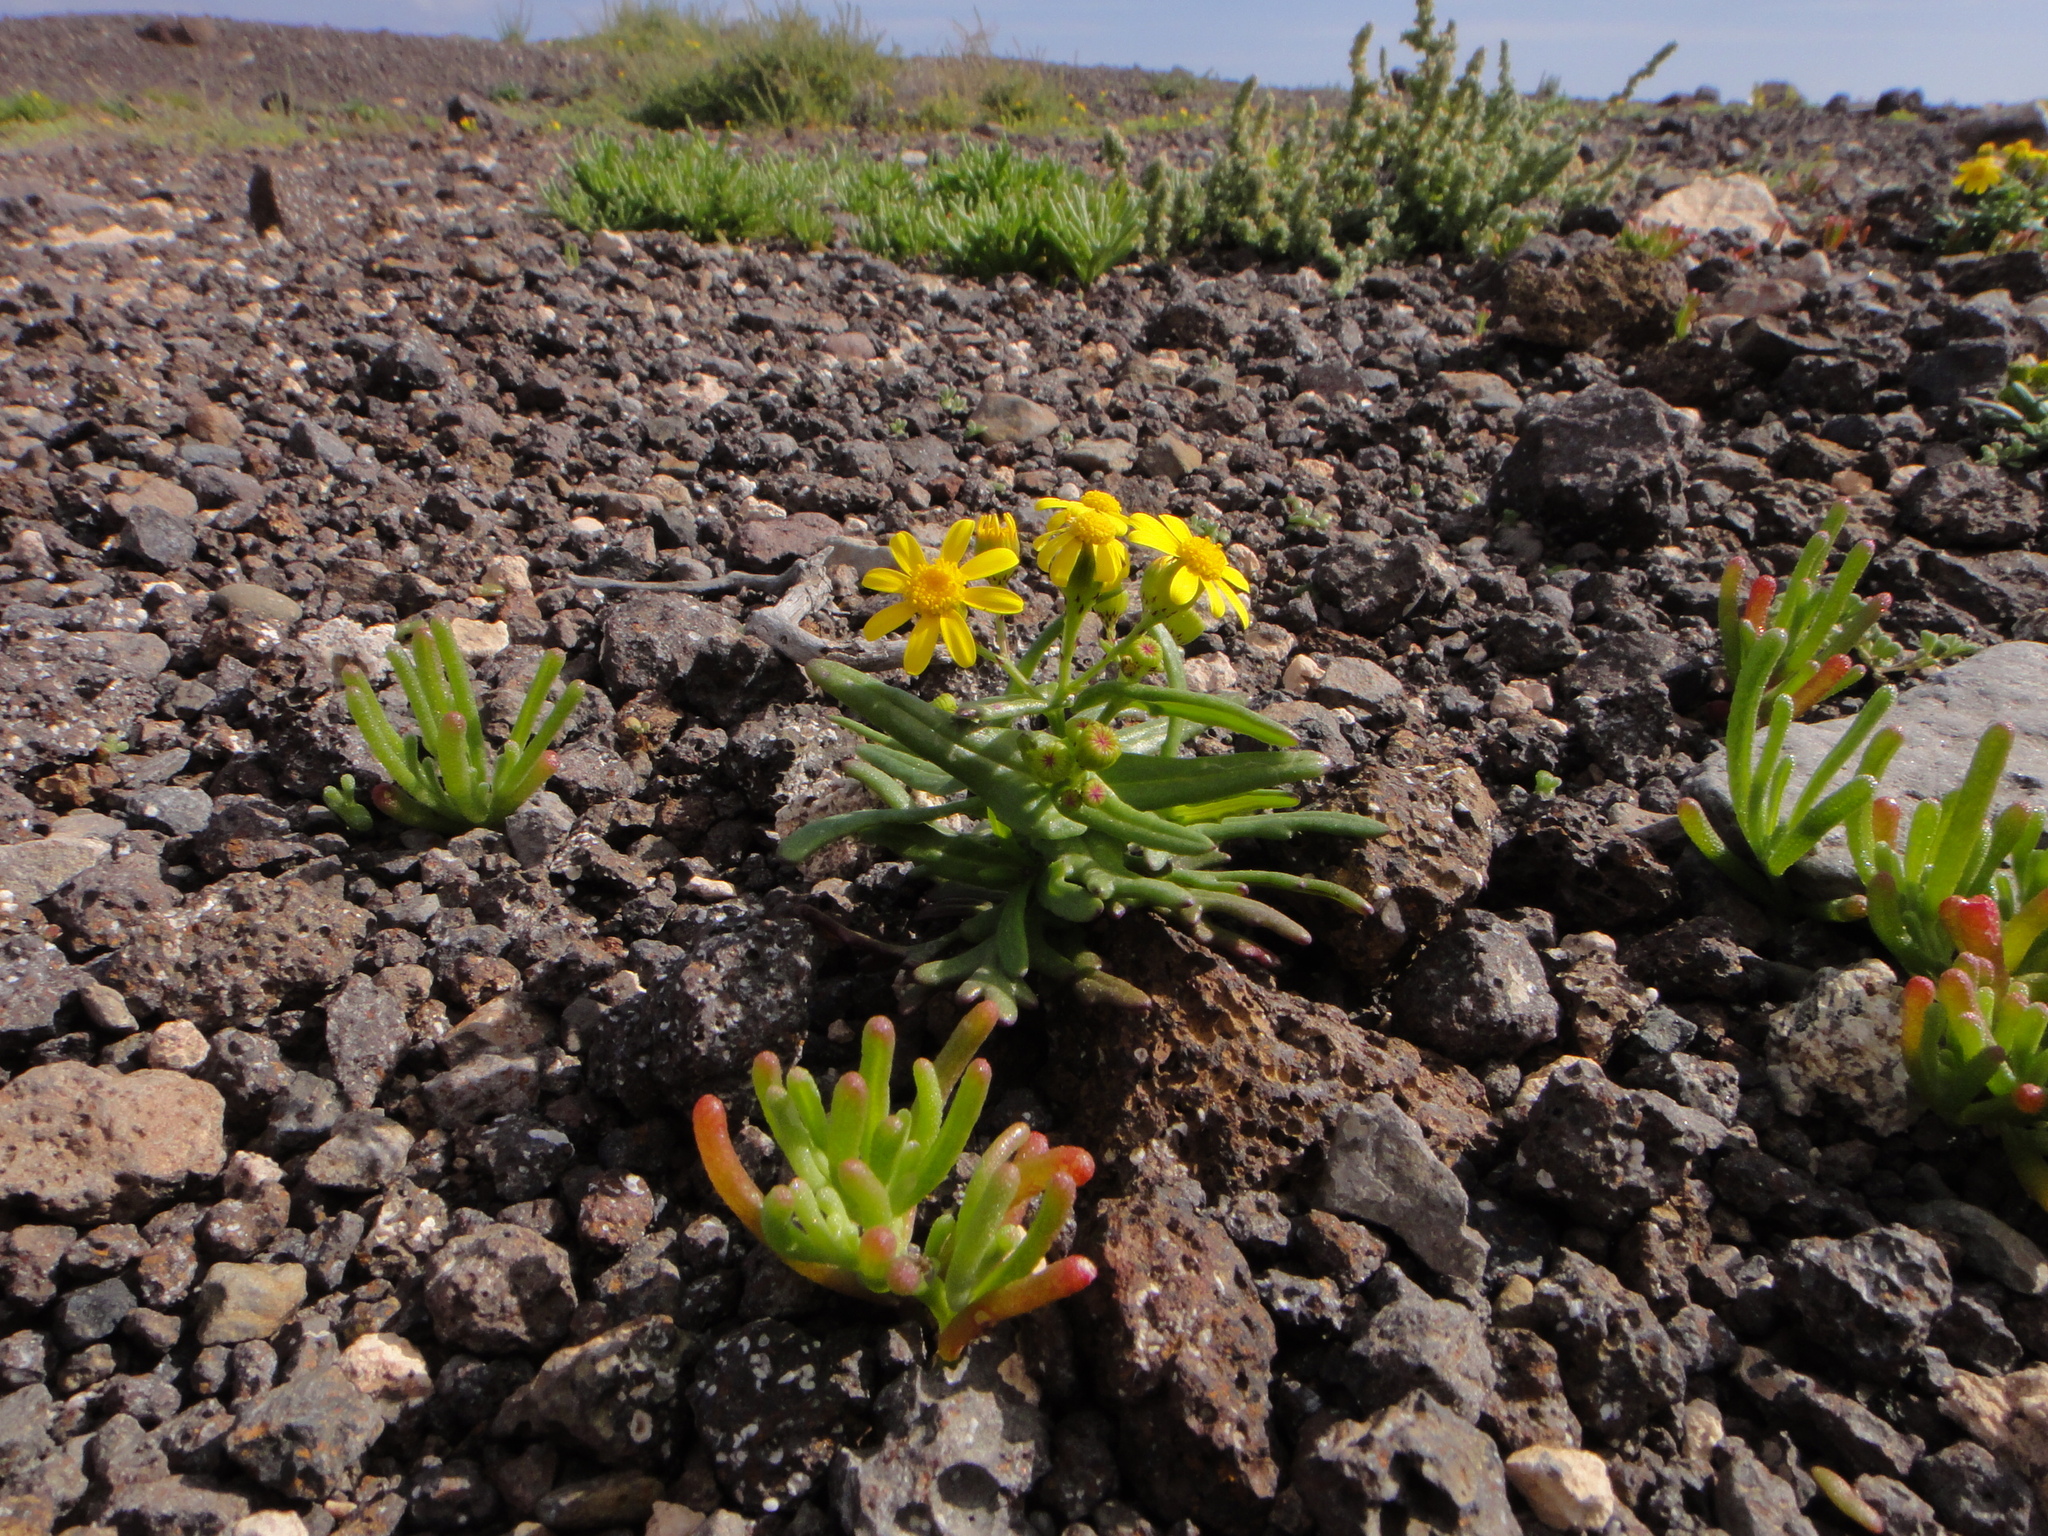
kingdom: Plantae
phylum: Tracheophyta
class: Magnoliopsida
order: Asterales
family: Asteraceae
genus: Senecio
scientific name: Senecio leucanthemifolius
